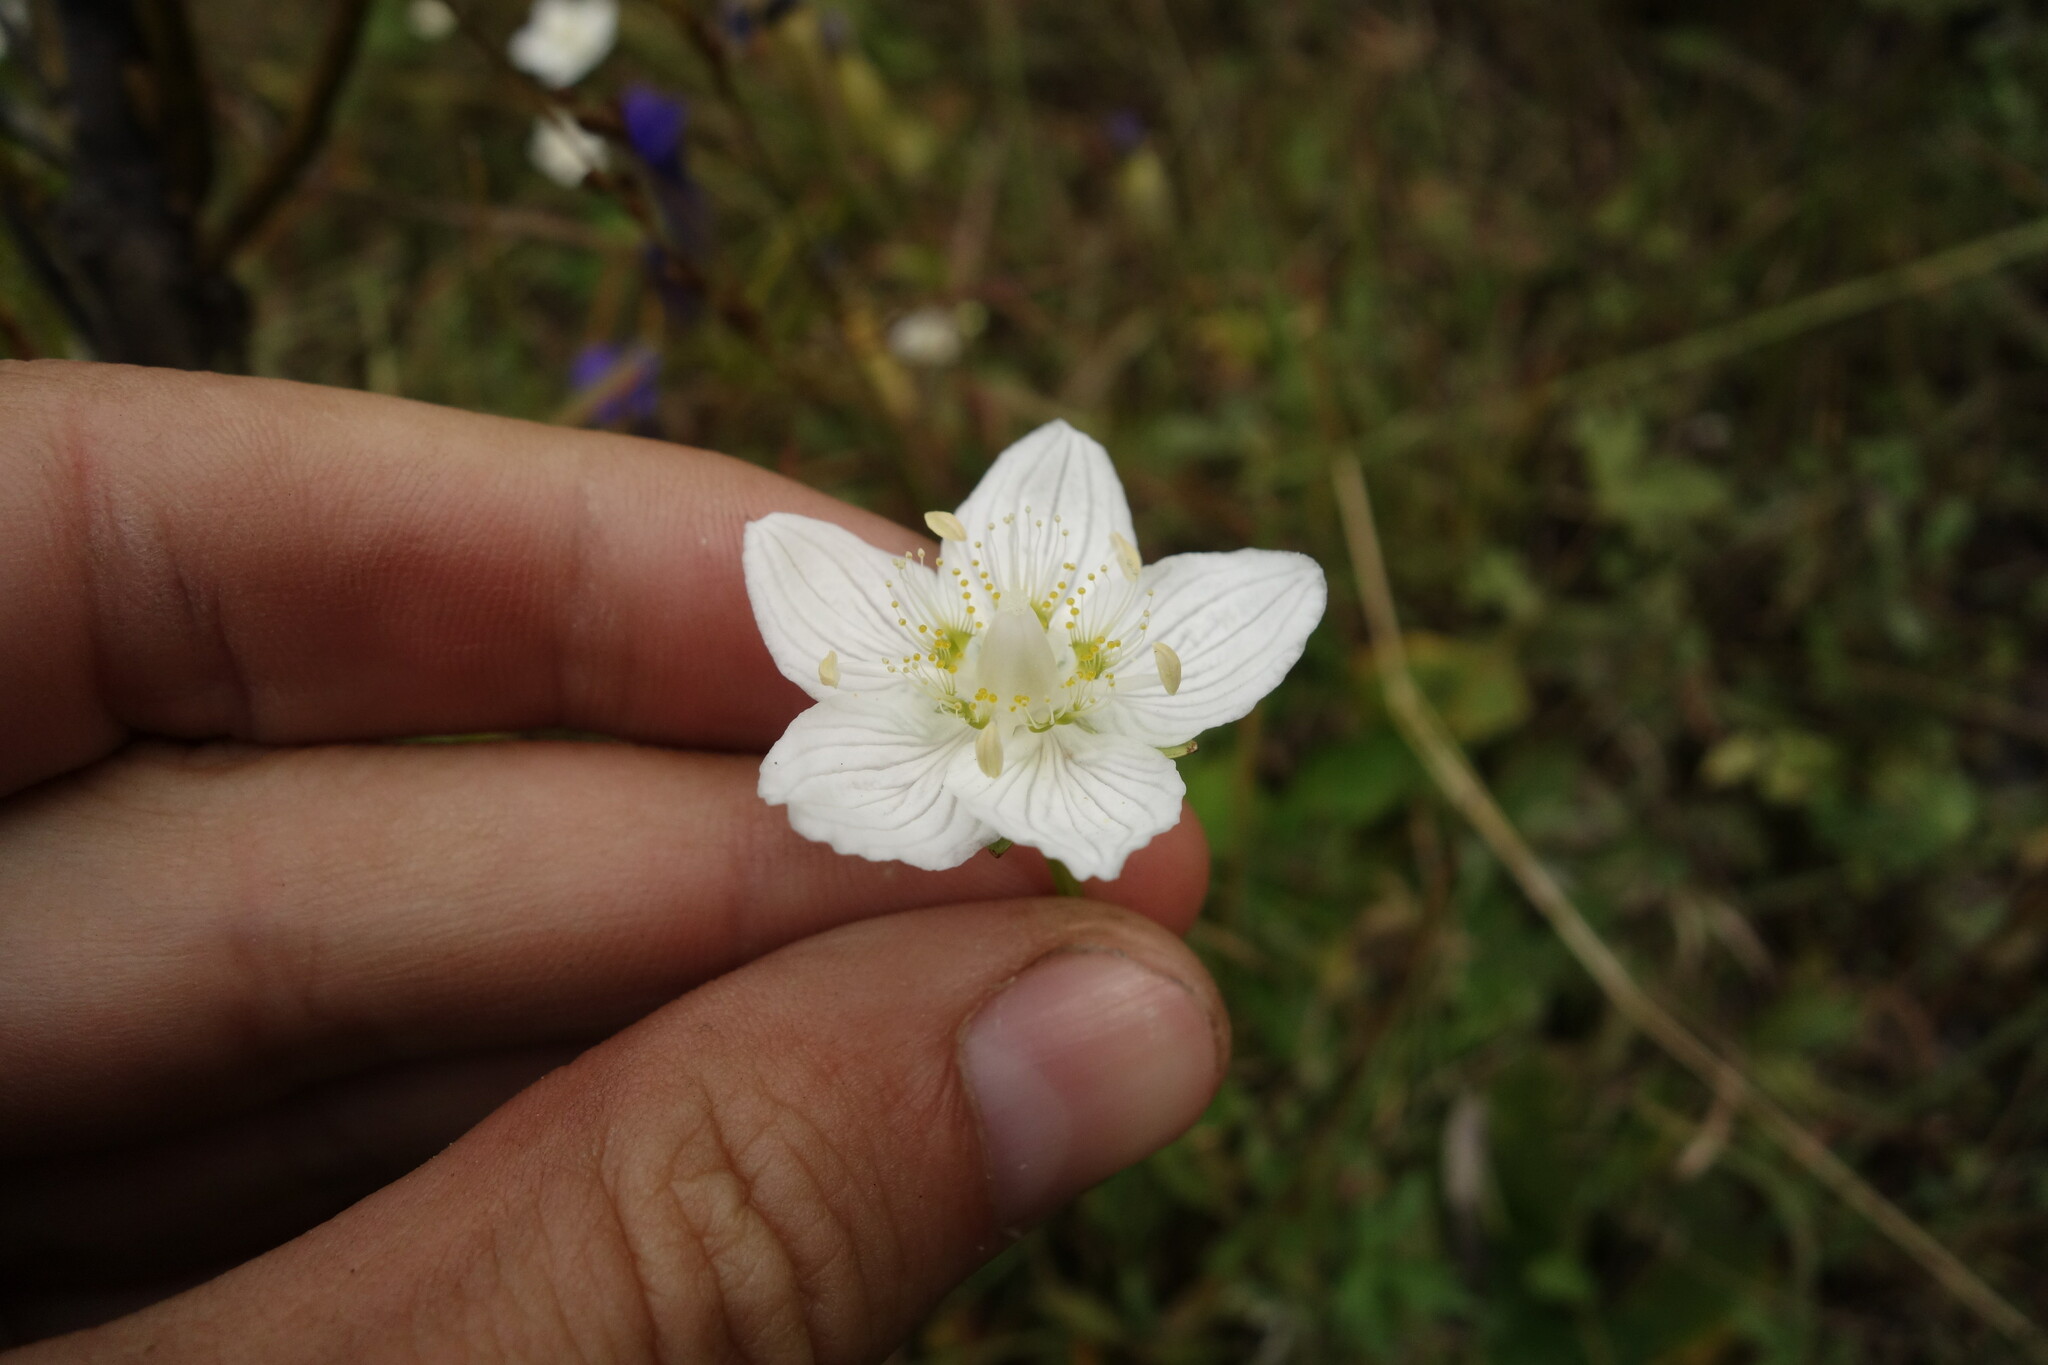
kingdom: Plantae
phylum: Tracheophyta
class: Magnoliopsida
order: Celastrales
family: Parnassiaceae
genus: Parnassia
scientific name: Parnassia palustris
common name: Grass-of-parnassus
